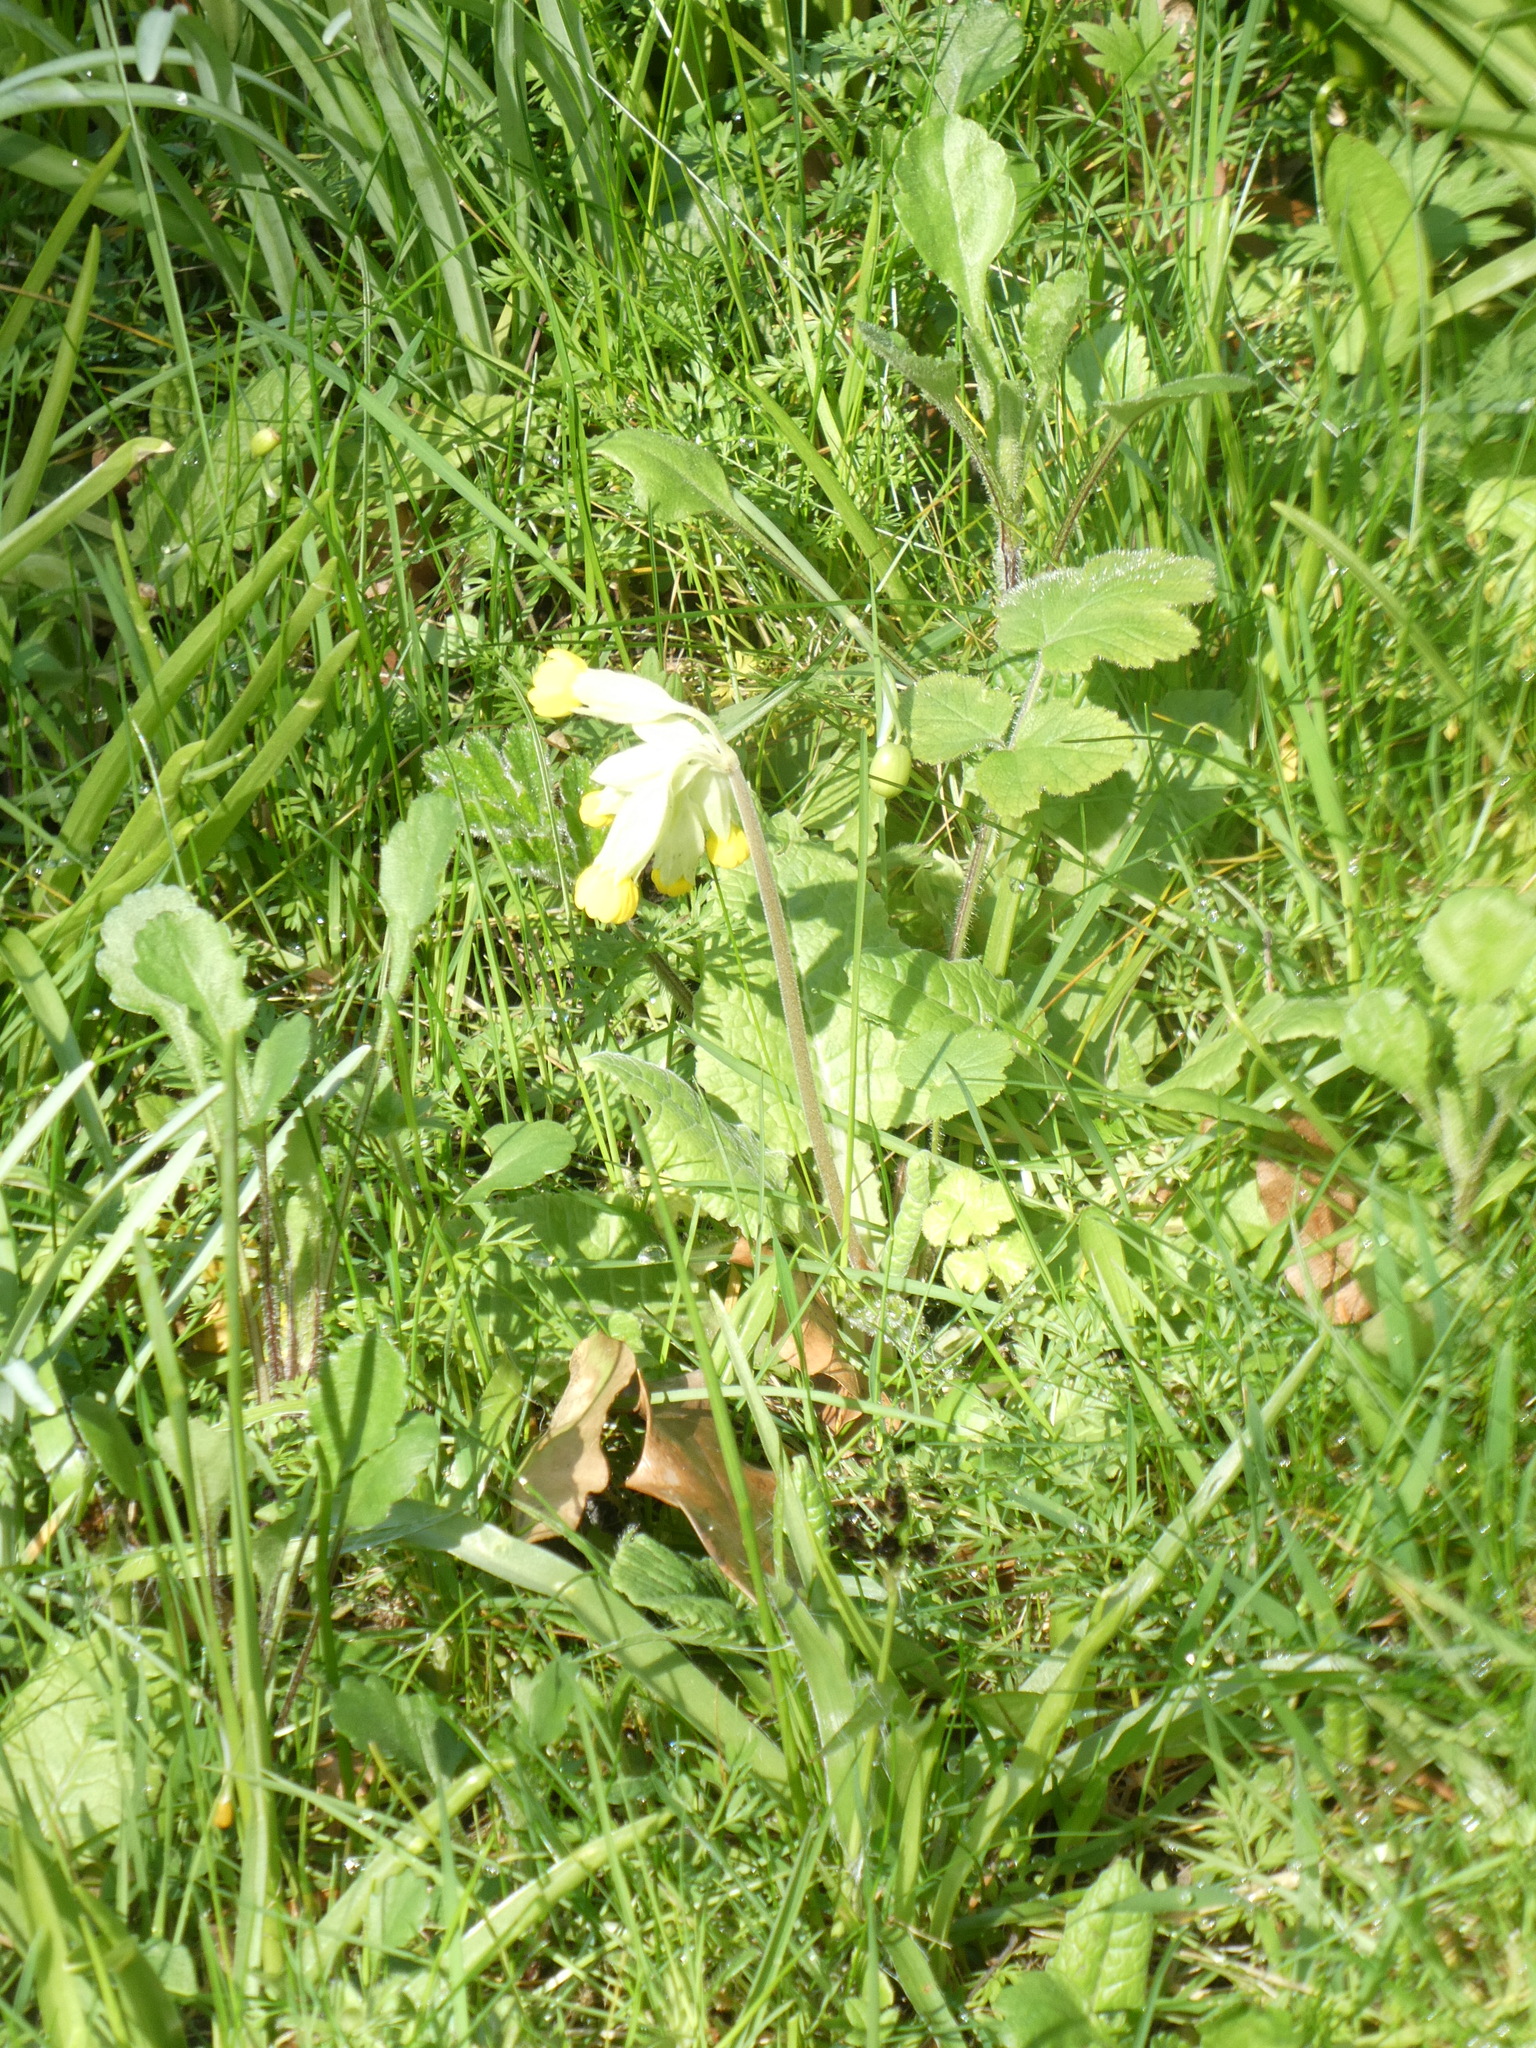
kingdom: Plantae
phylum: Tracheophyta
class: Magnoliopsida
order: Ericales
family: Primulaceae
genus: Primula
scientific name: Primula veris
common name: Cowslip
